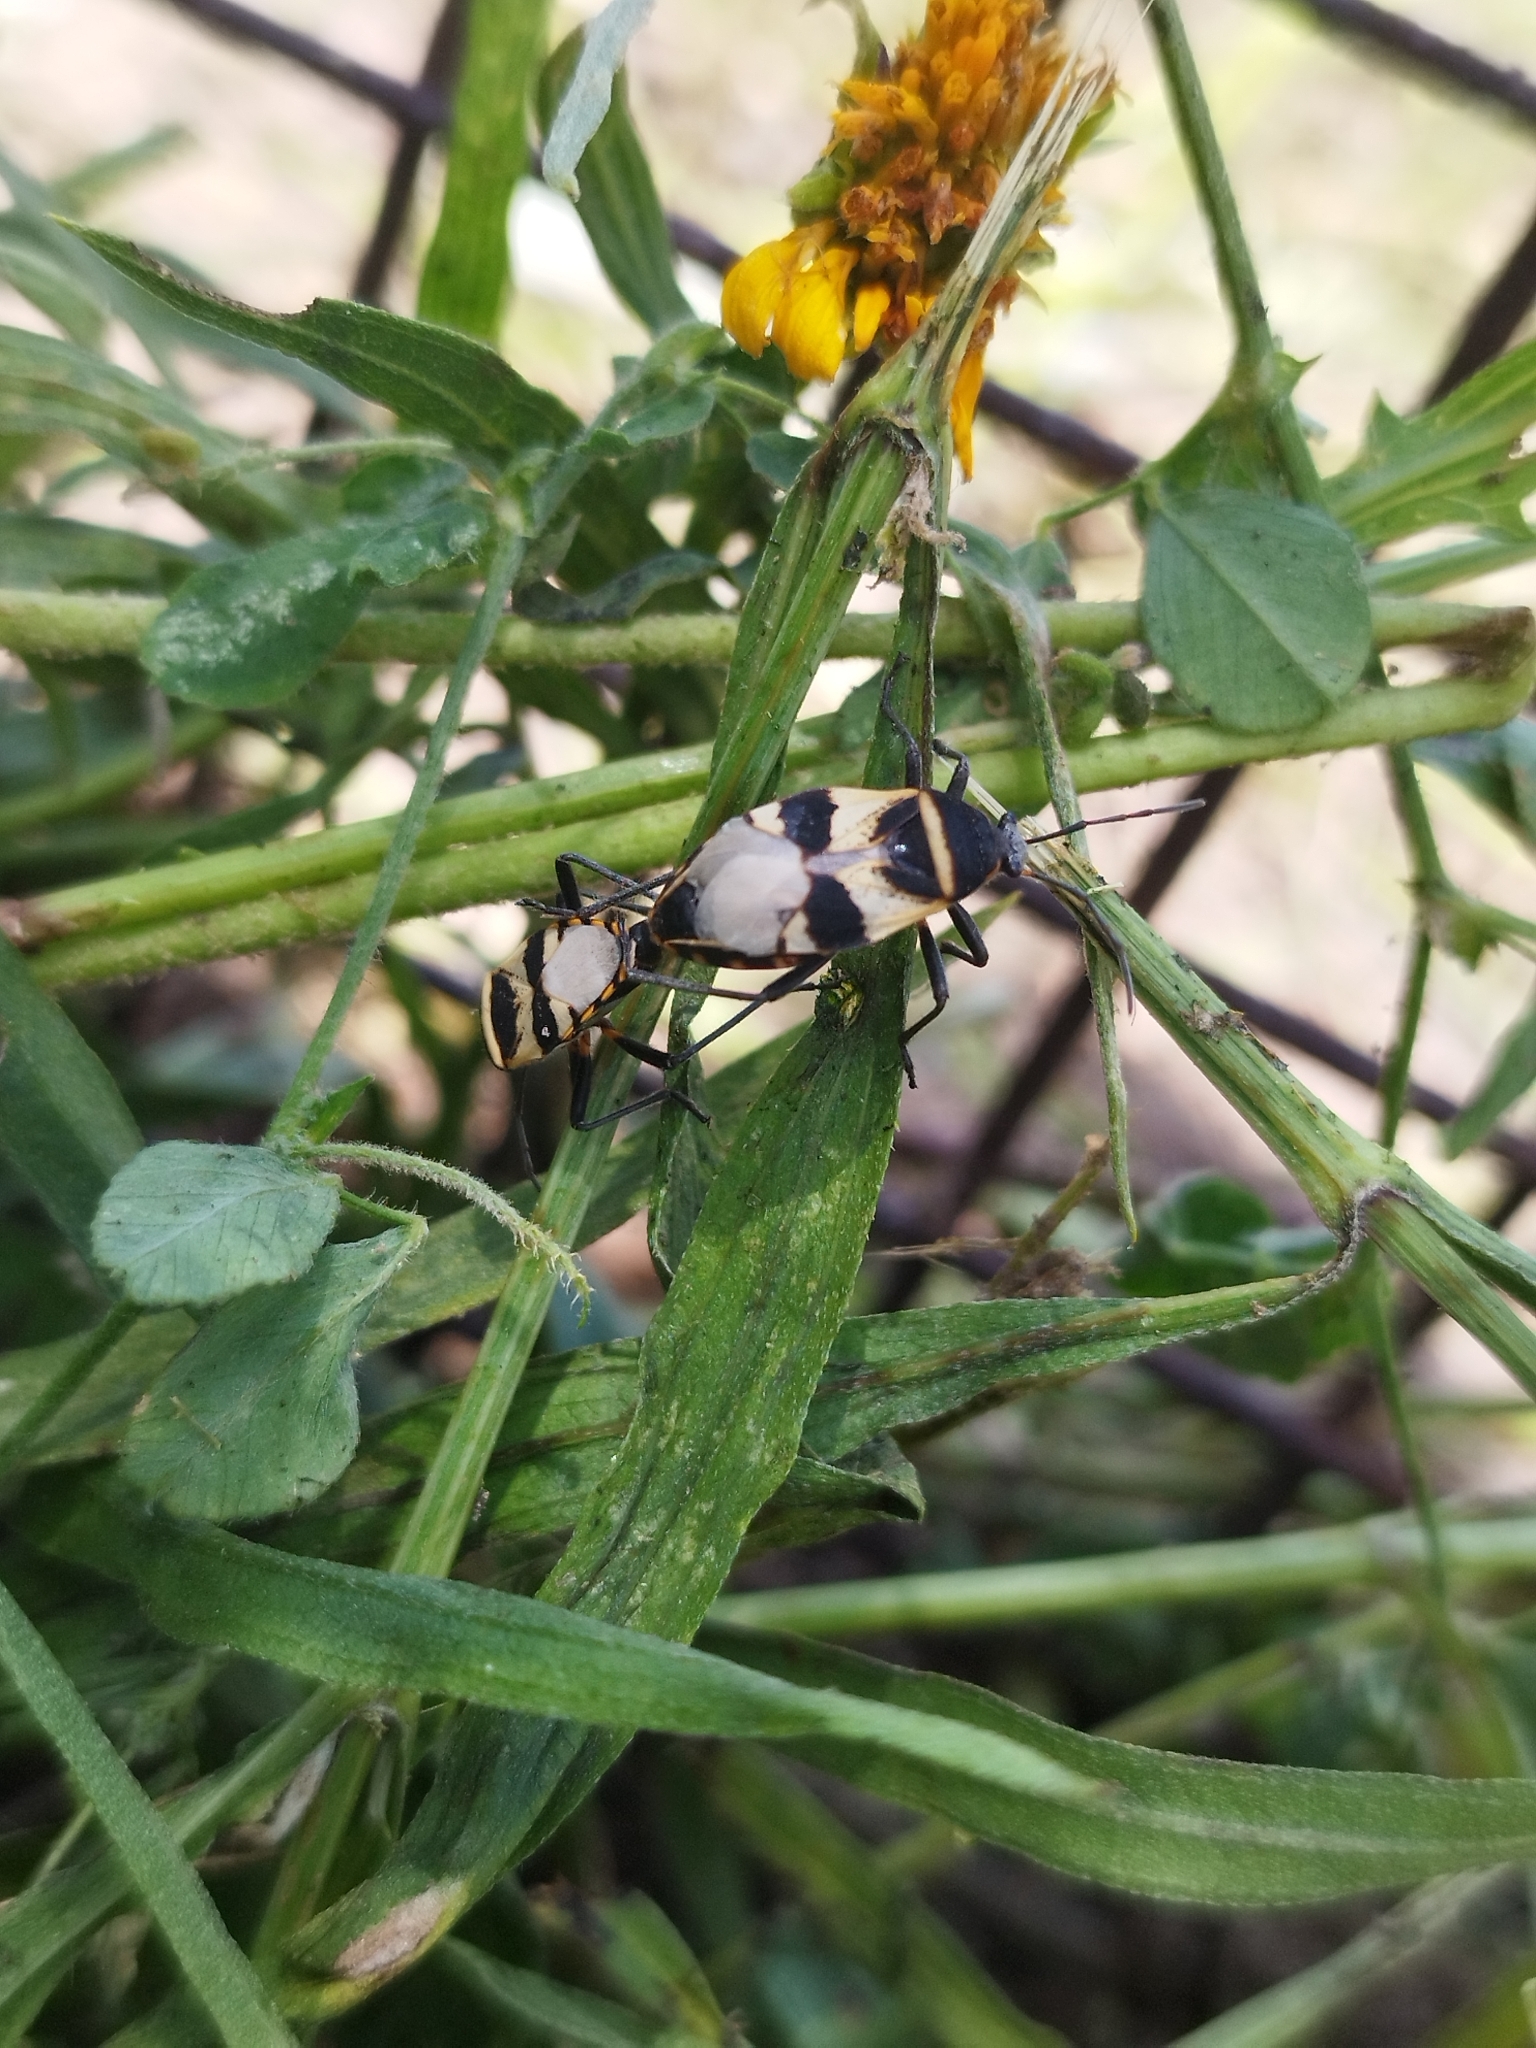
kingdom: Animalia
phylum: Arthropoda
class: Insecta
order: Hemiptera
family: Largidae
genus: Largus
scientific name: Largus fasciatus
